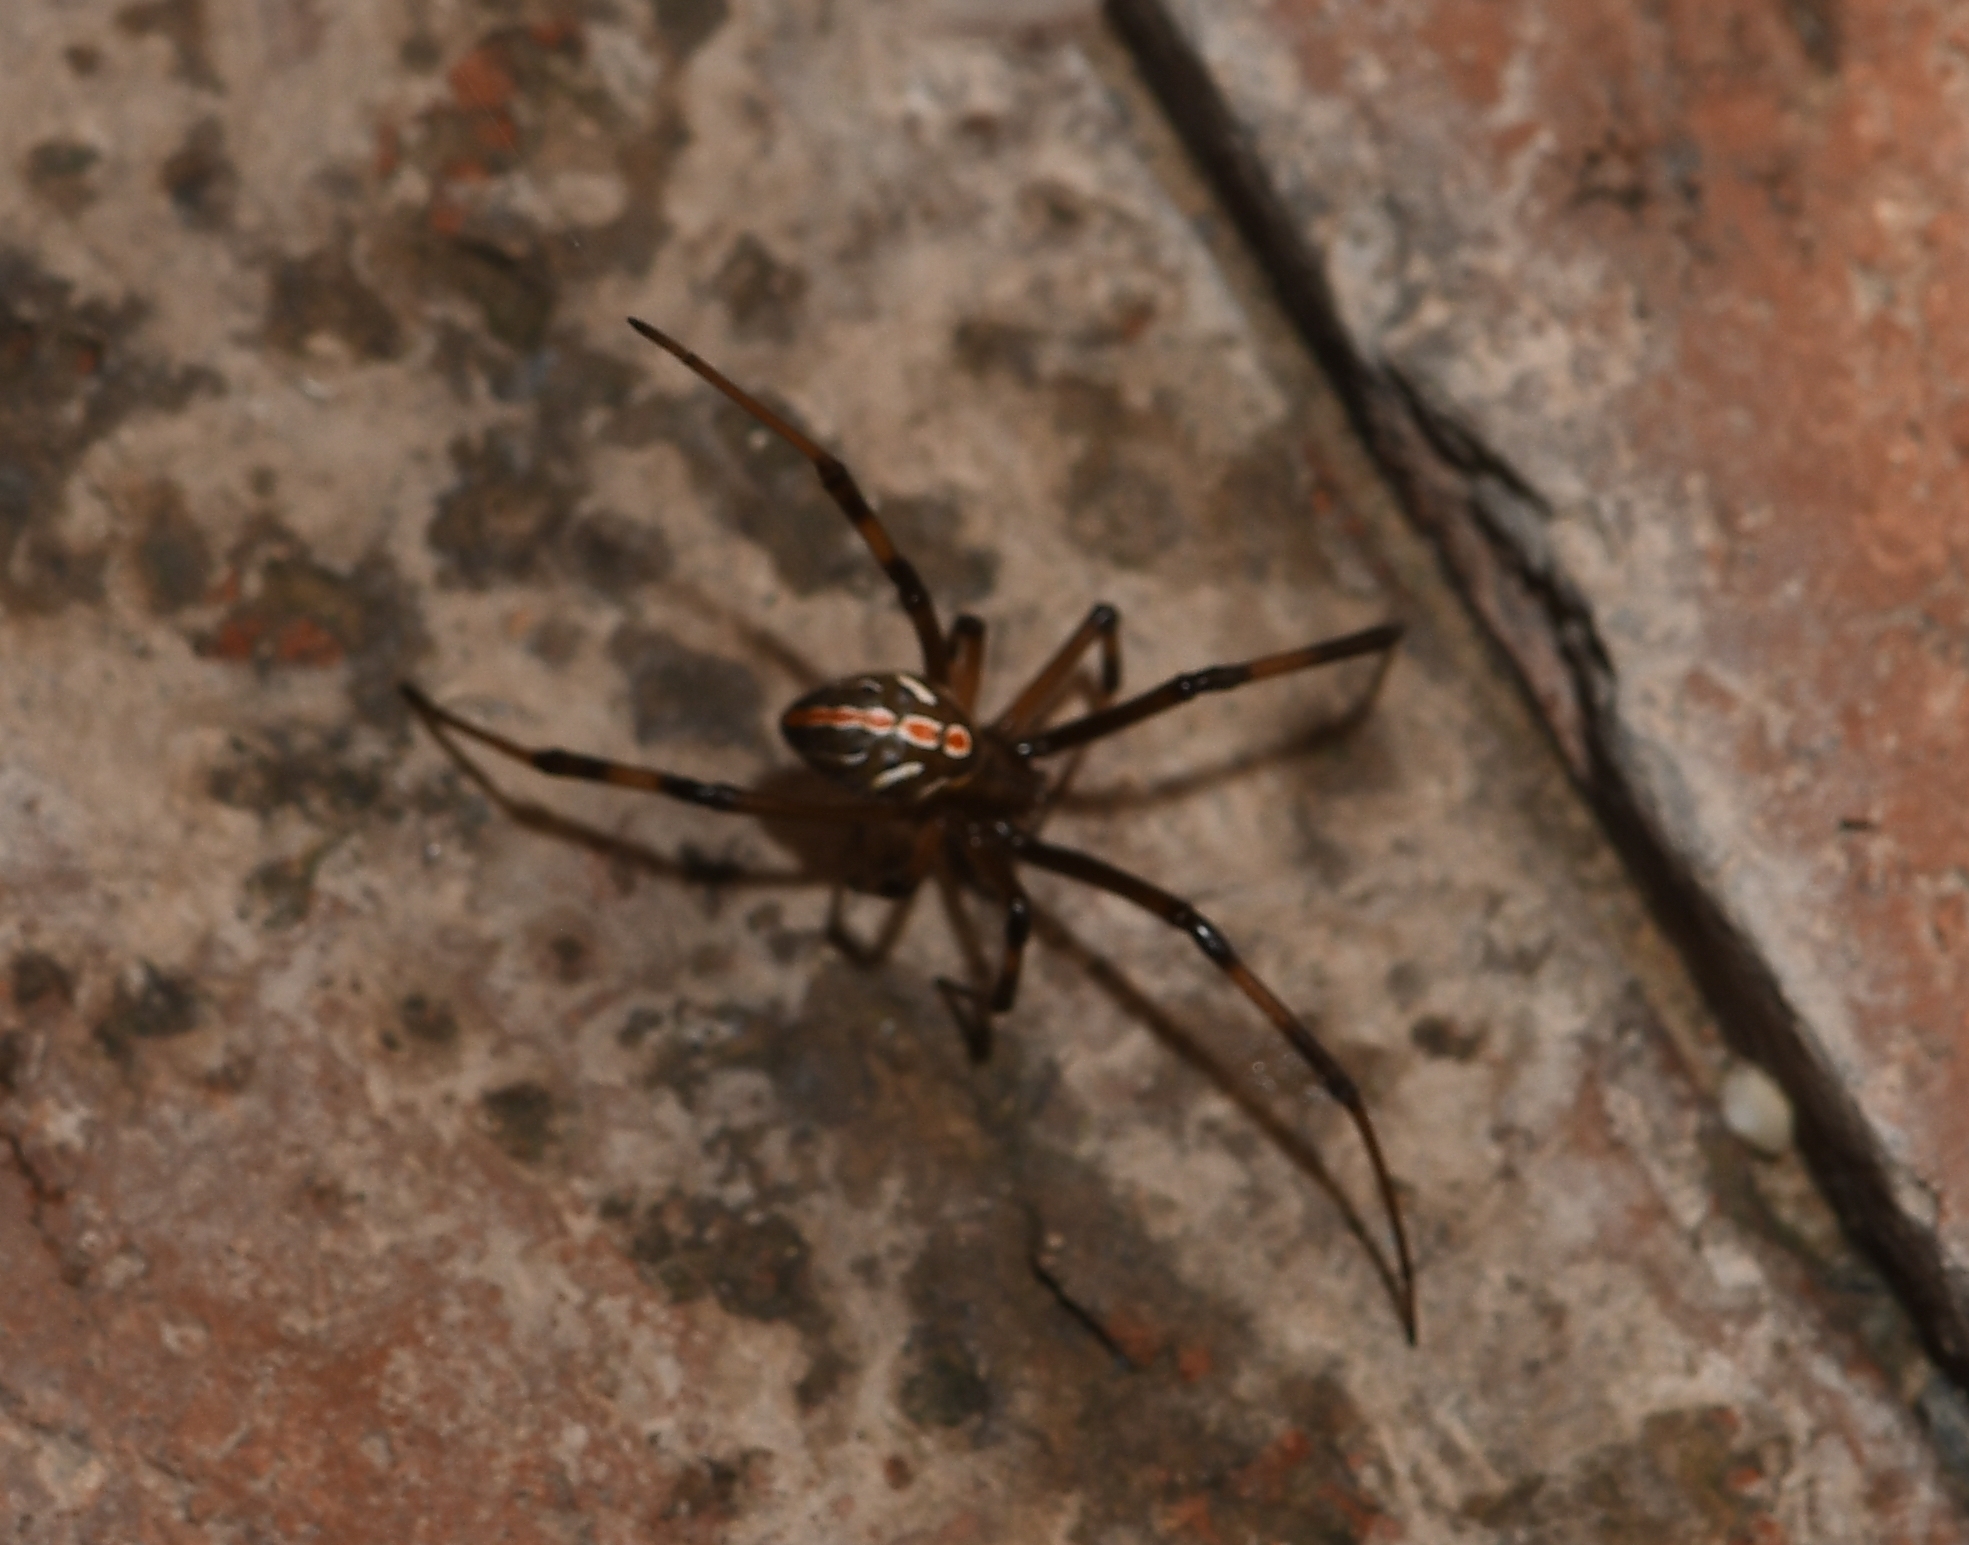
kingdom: Animalia
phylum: Arthropoda
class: Arachnida
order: Araneae
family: Theridiidae
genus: Latrodectus
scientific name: Latrodectus hesperus
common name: Western black widow
